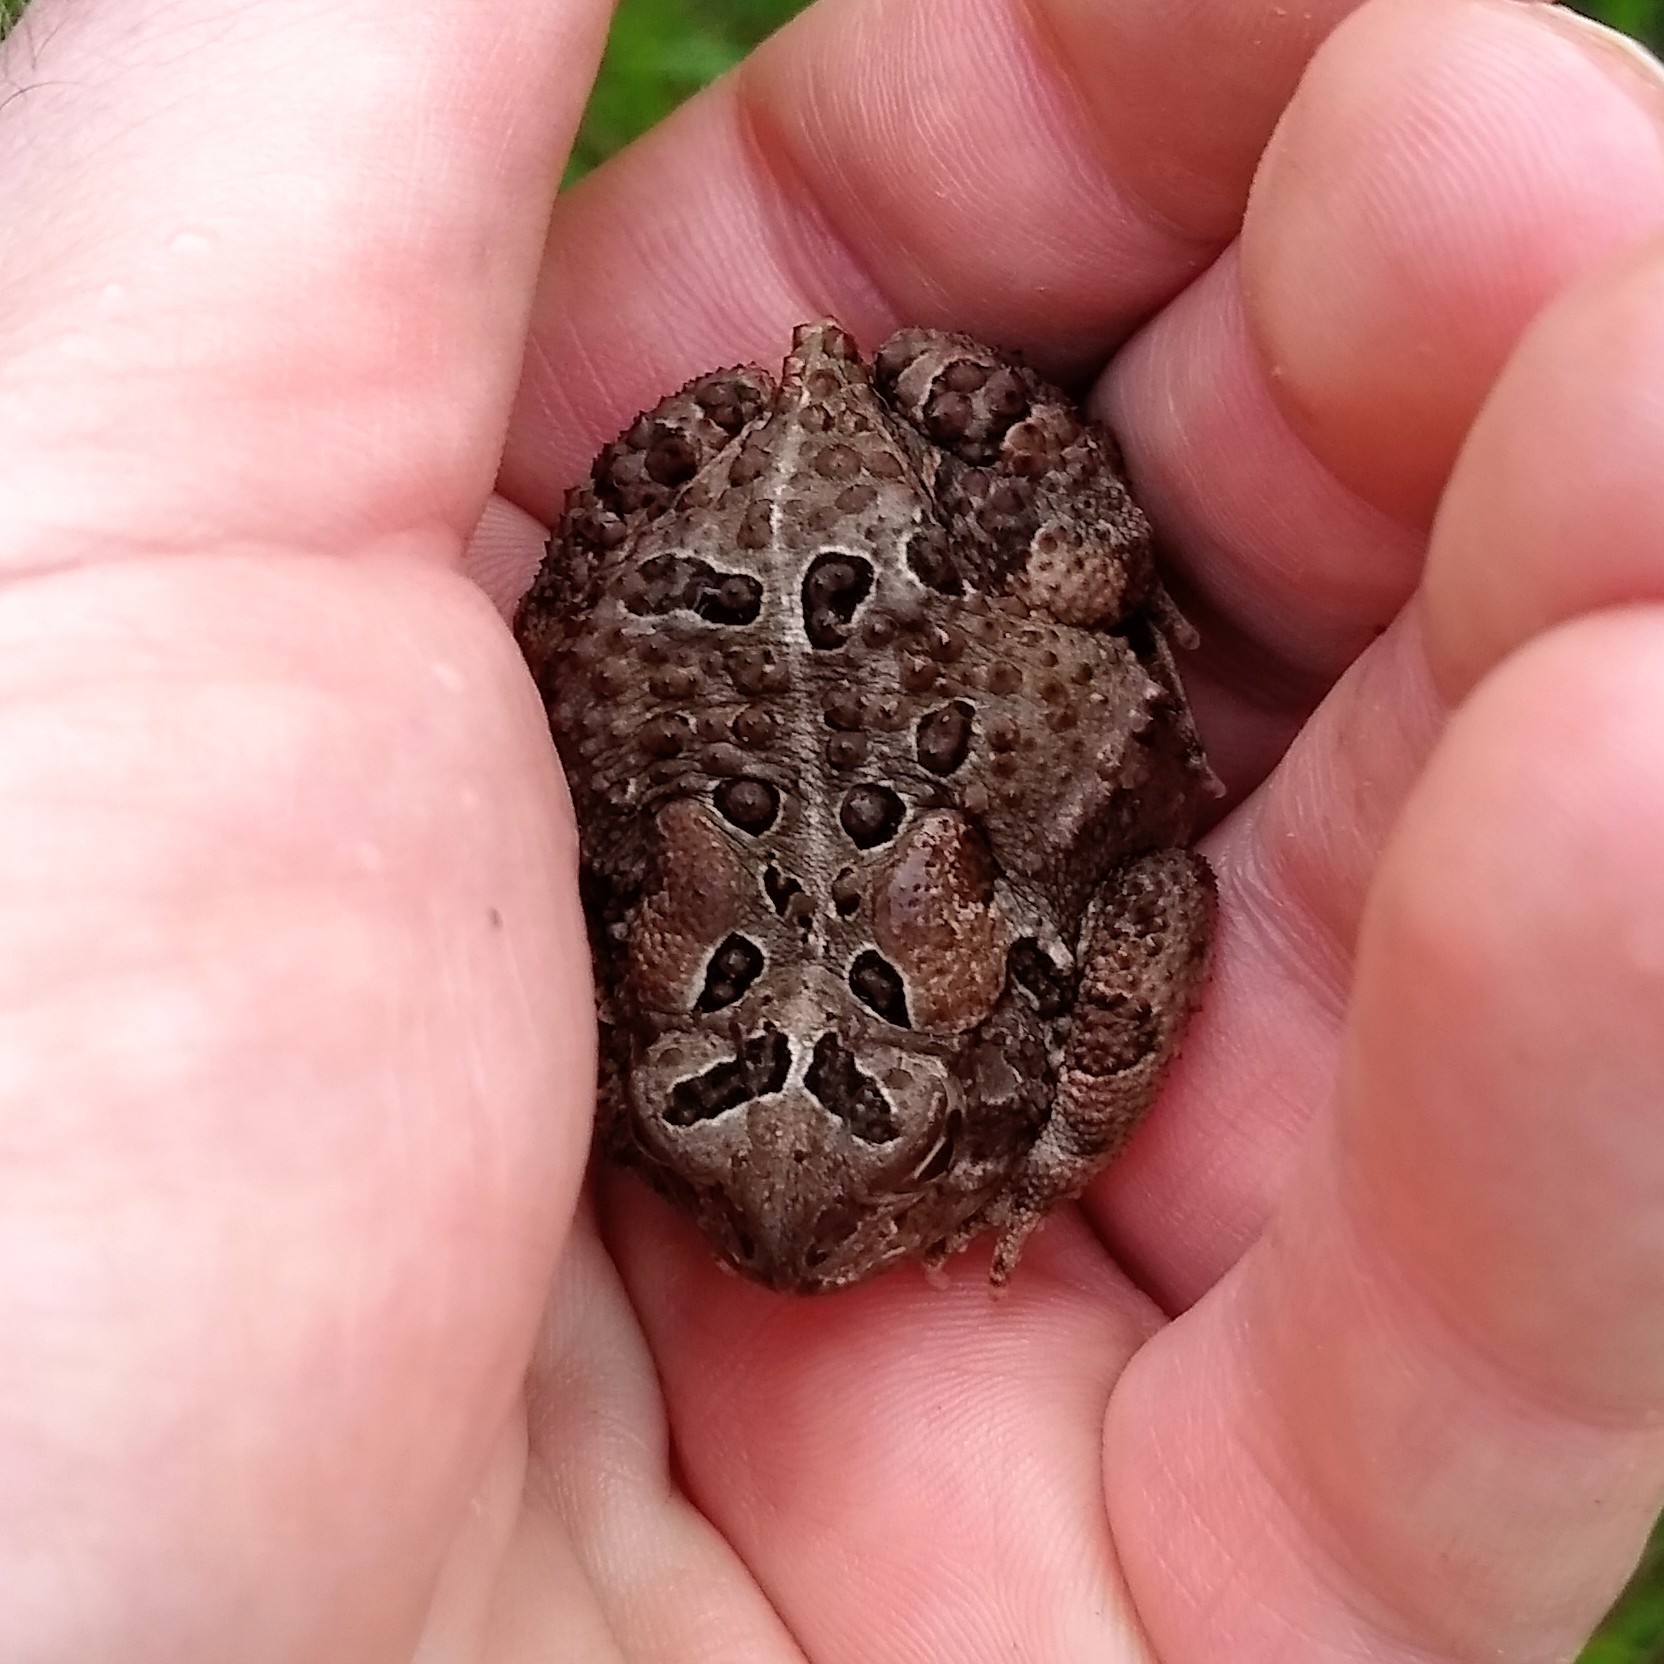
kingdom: Animalia
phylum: Chordata
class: Amphibia
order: Anura
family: Bufonidae
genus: Anaxyrus
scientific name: Anaxyrus americanus
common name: American toad
